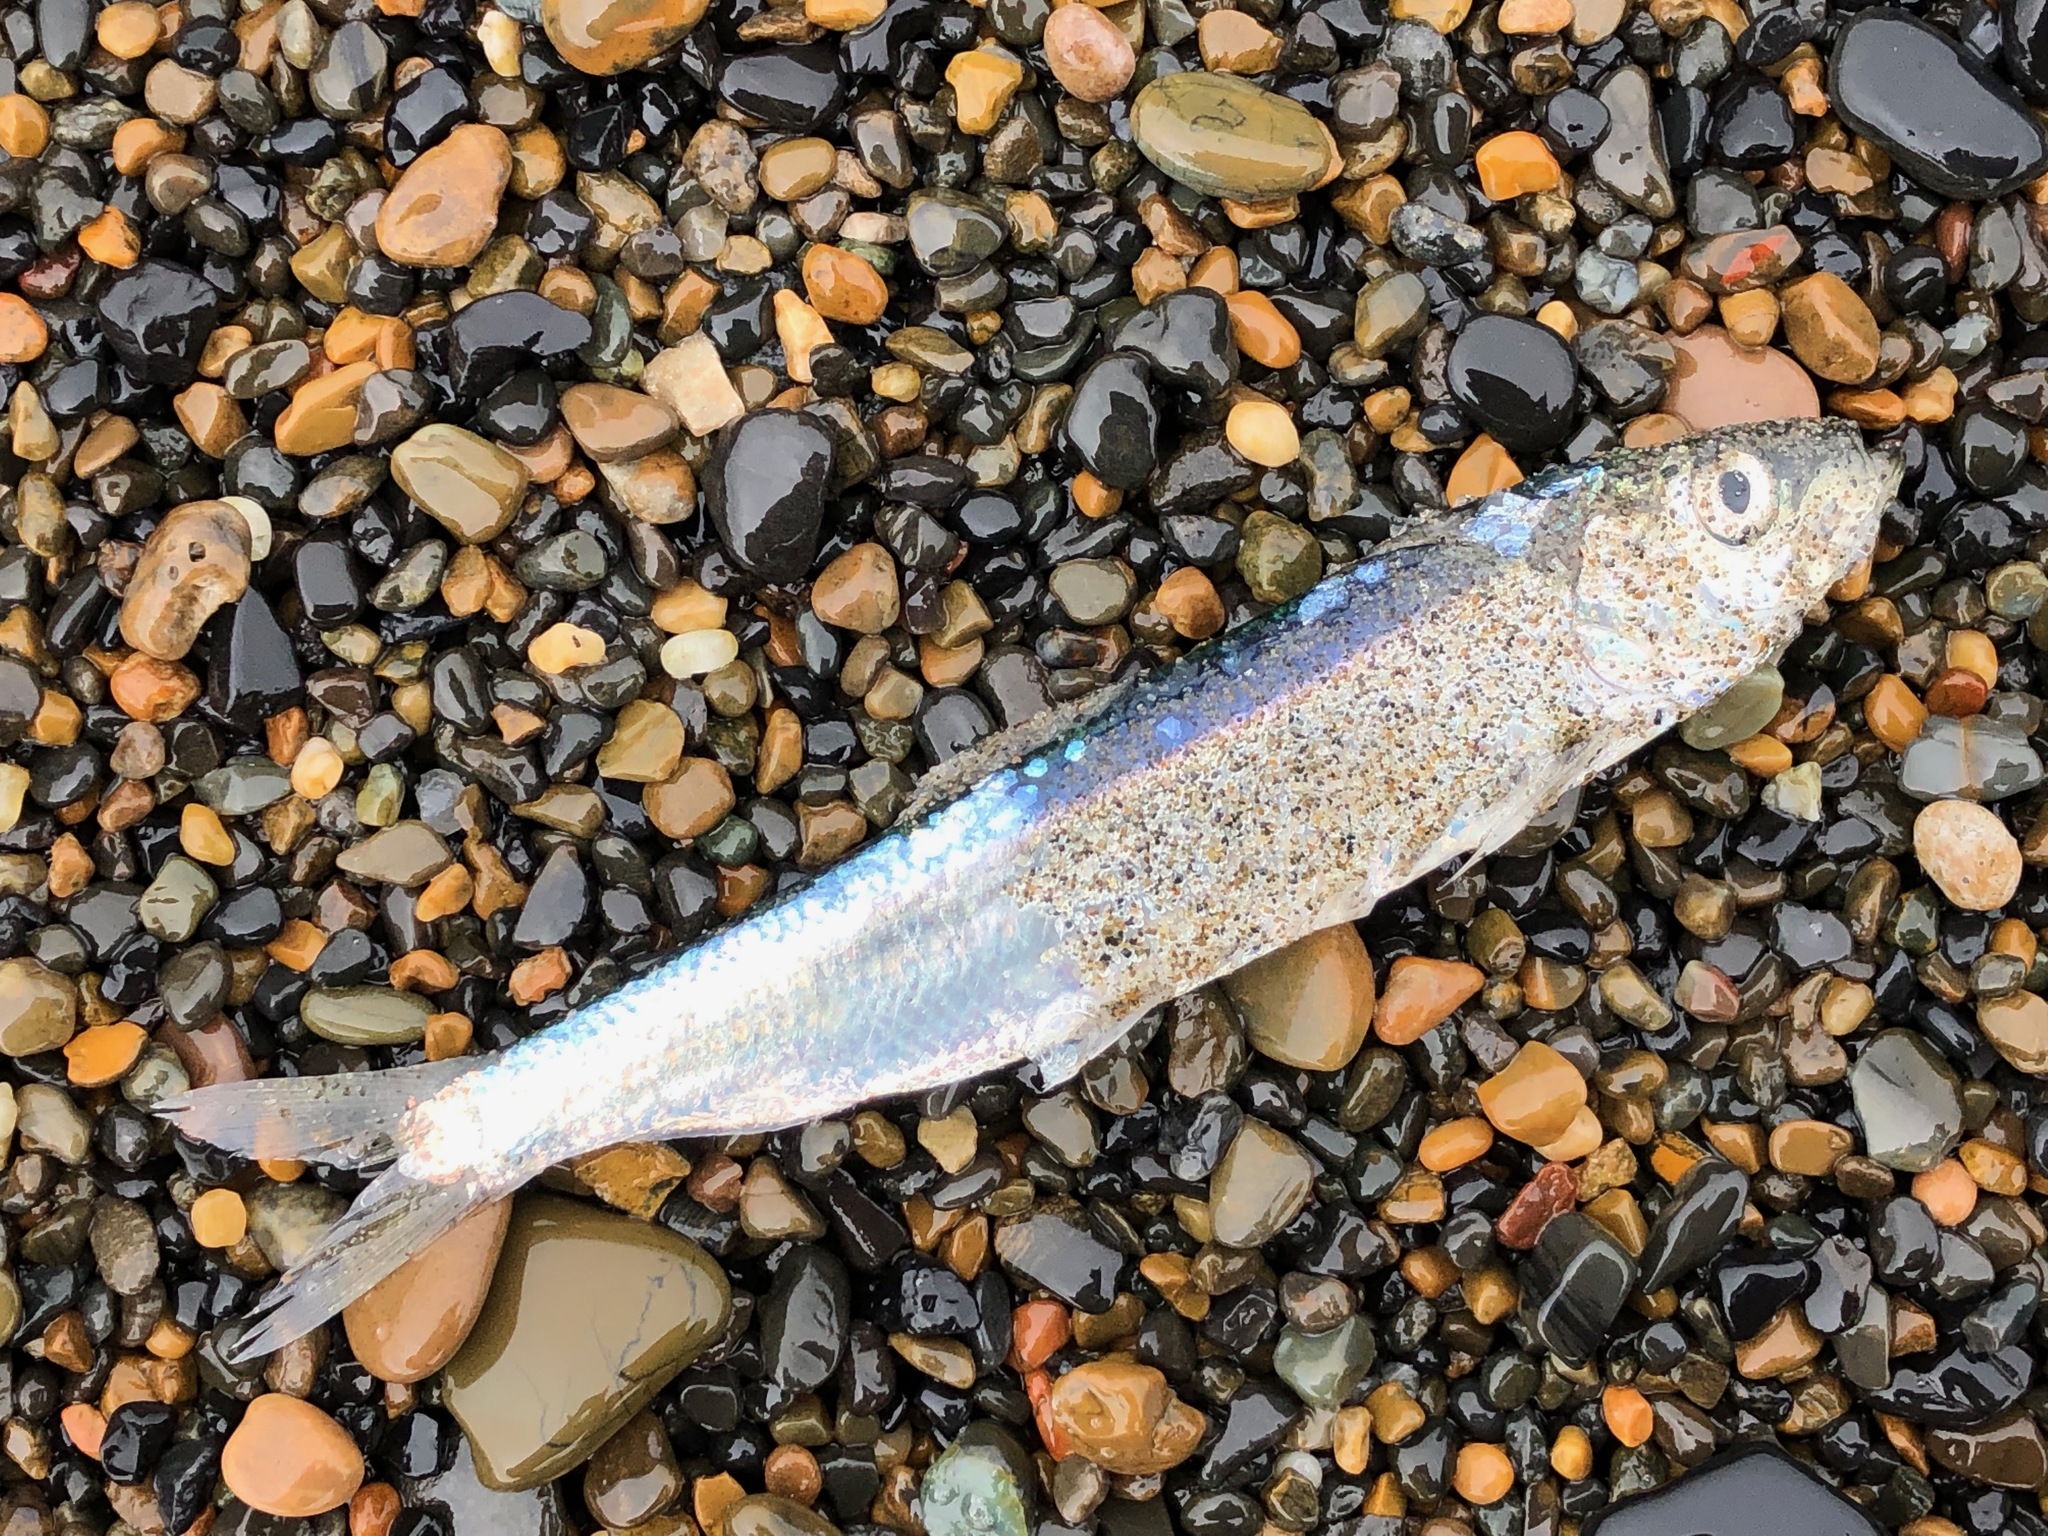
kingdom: Animalia
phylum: Chordata
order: Clupeiformes
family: Clupeidae
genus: Clupea
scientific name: Clupea pallasii
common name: Pacific herring
